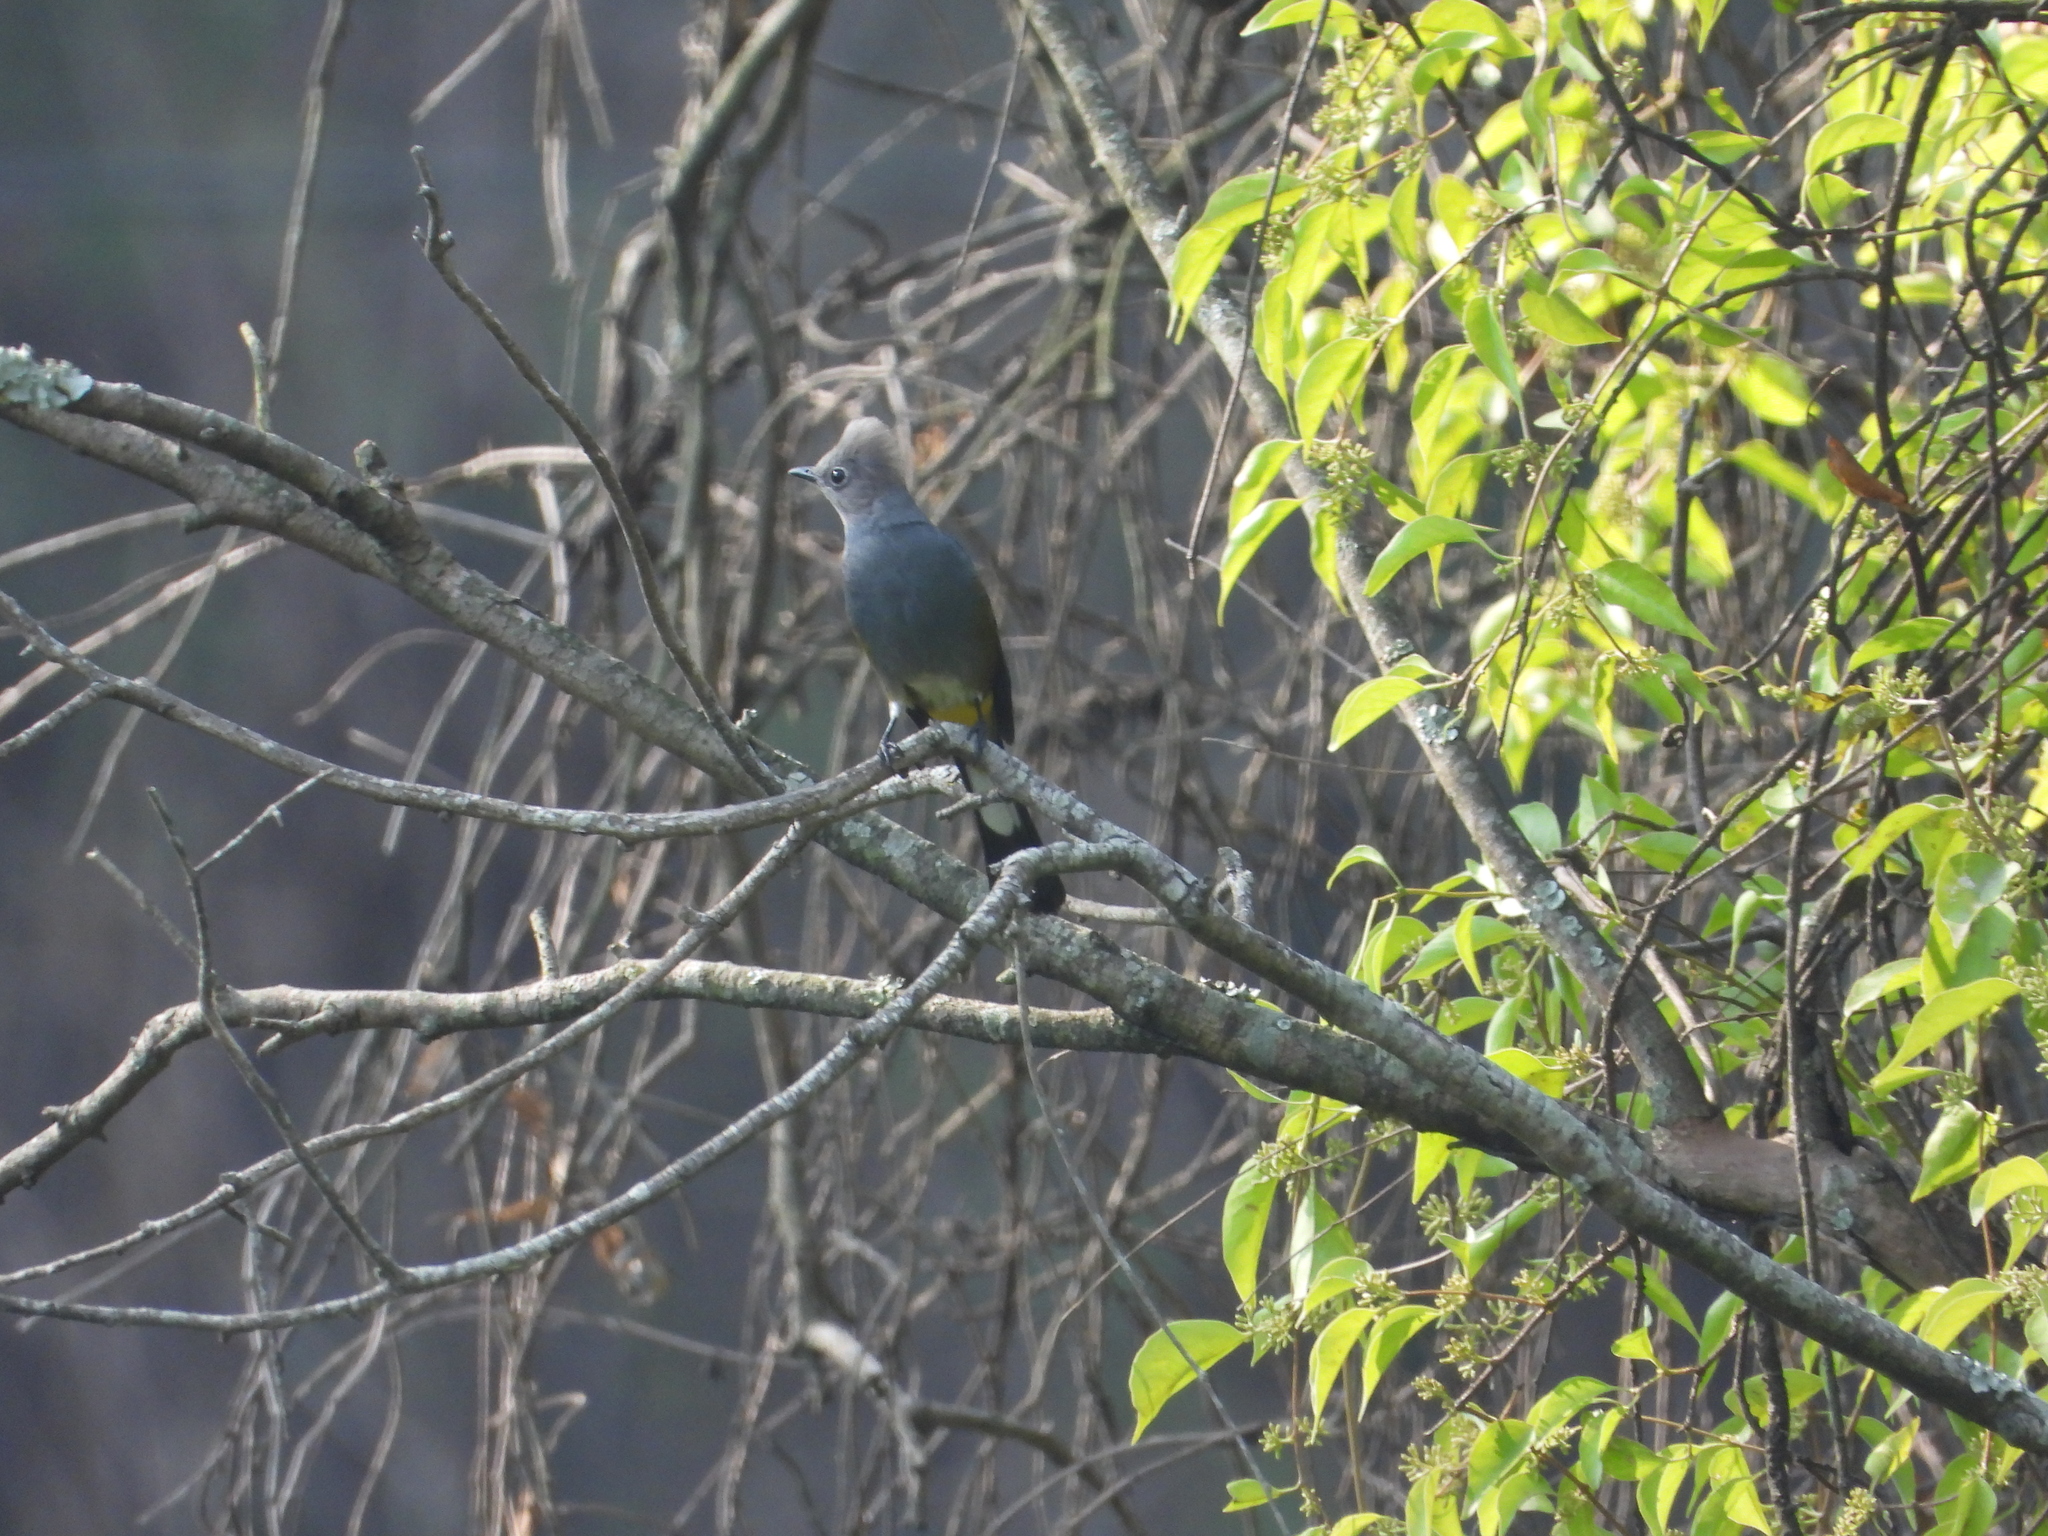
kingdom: Animalia
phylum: Chordata
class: Aves
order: Passeriformes
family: Ptilogonatidae
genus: Ptilogonys
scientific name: Ptilogonys cinereus
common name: Gray silky-flycatcher
